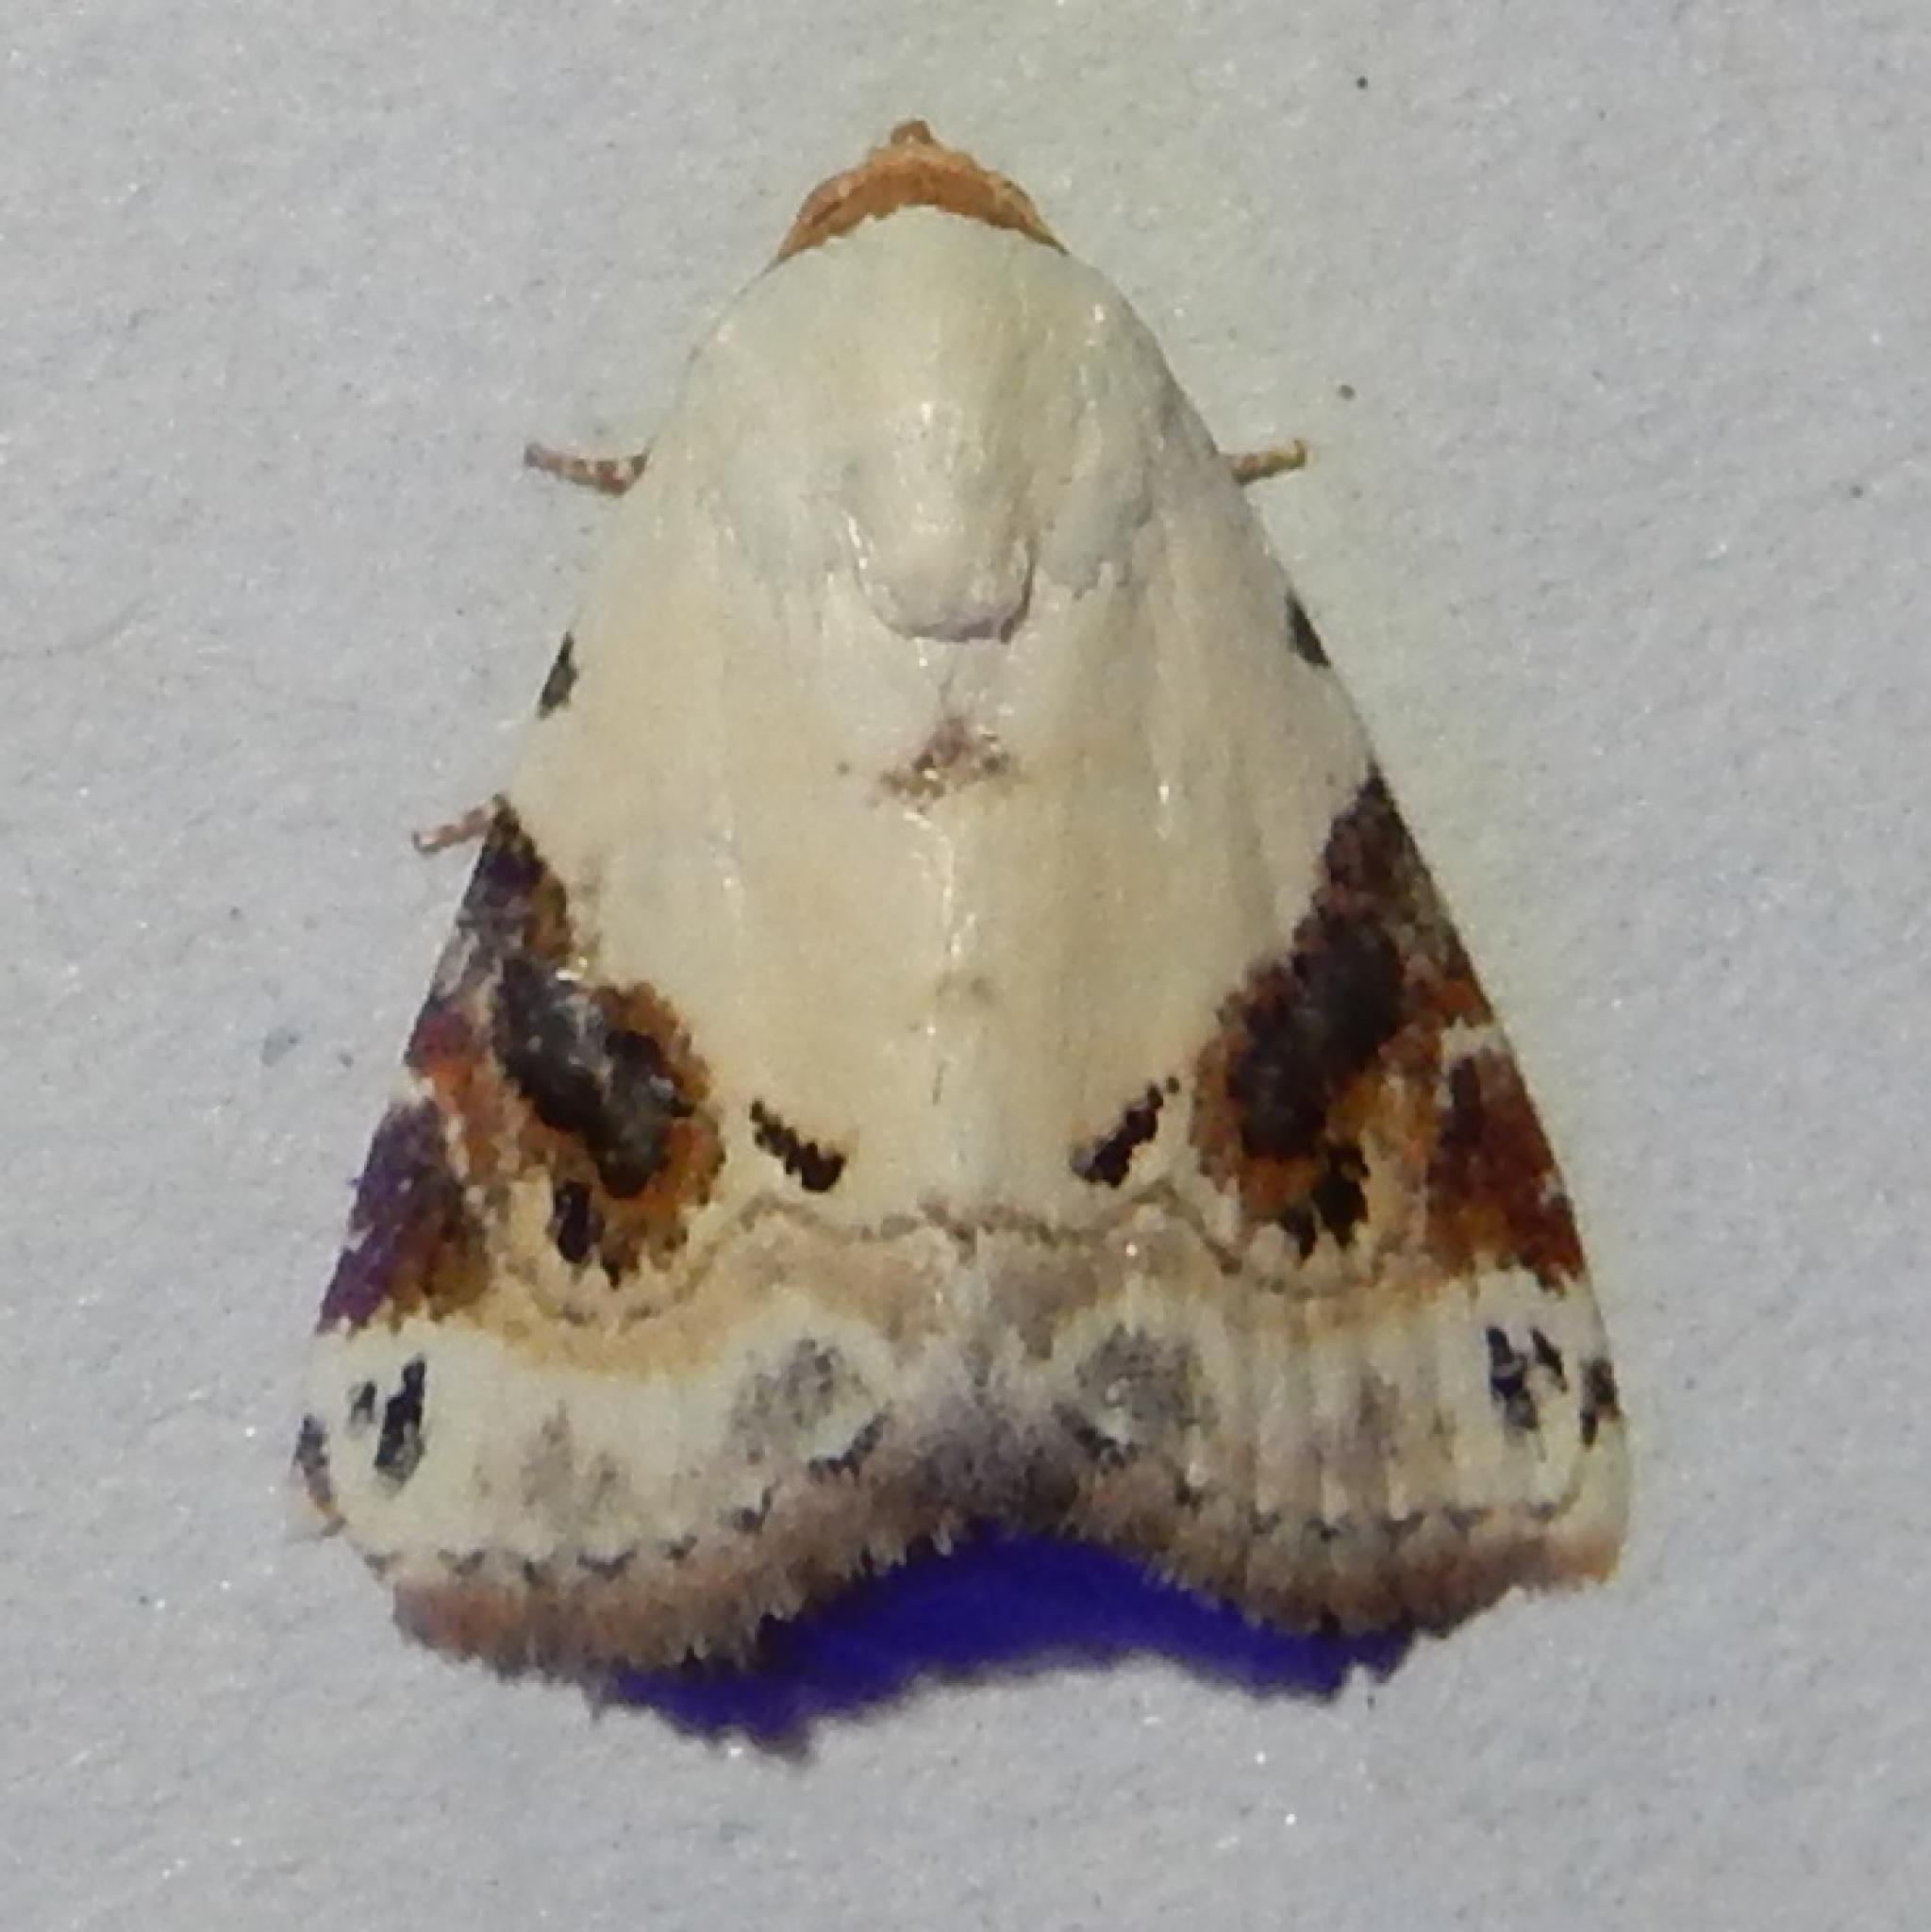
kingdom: Animalia
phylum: Arthropoda
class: Insecta
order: Lepidoptera
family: Noctuidae
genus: Eublemma
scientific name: Eublemma ecthaemata
